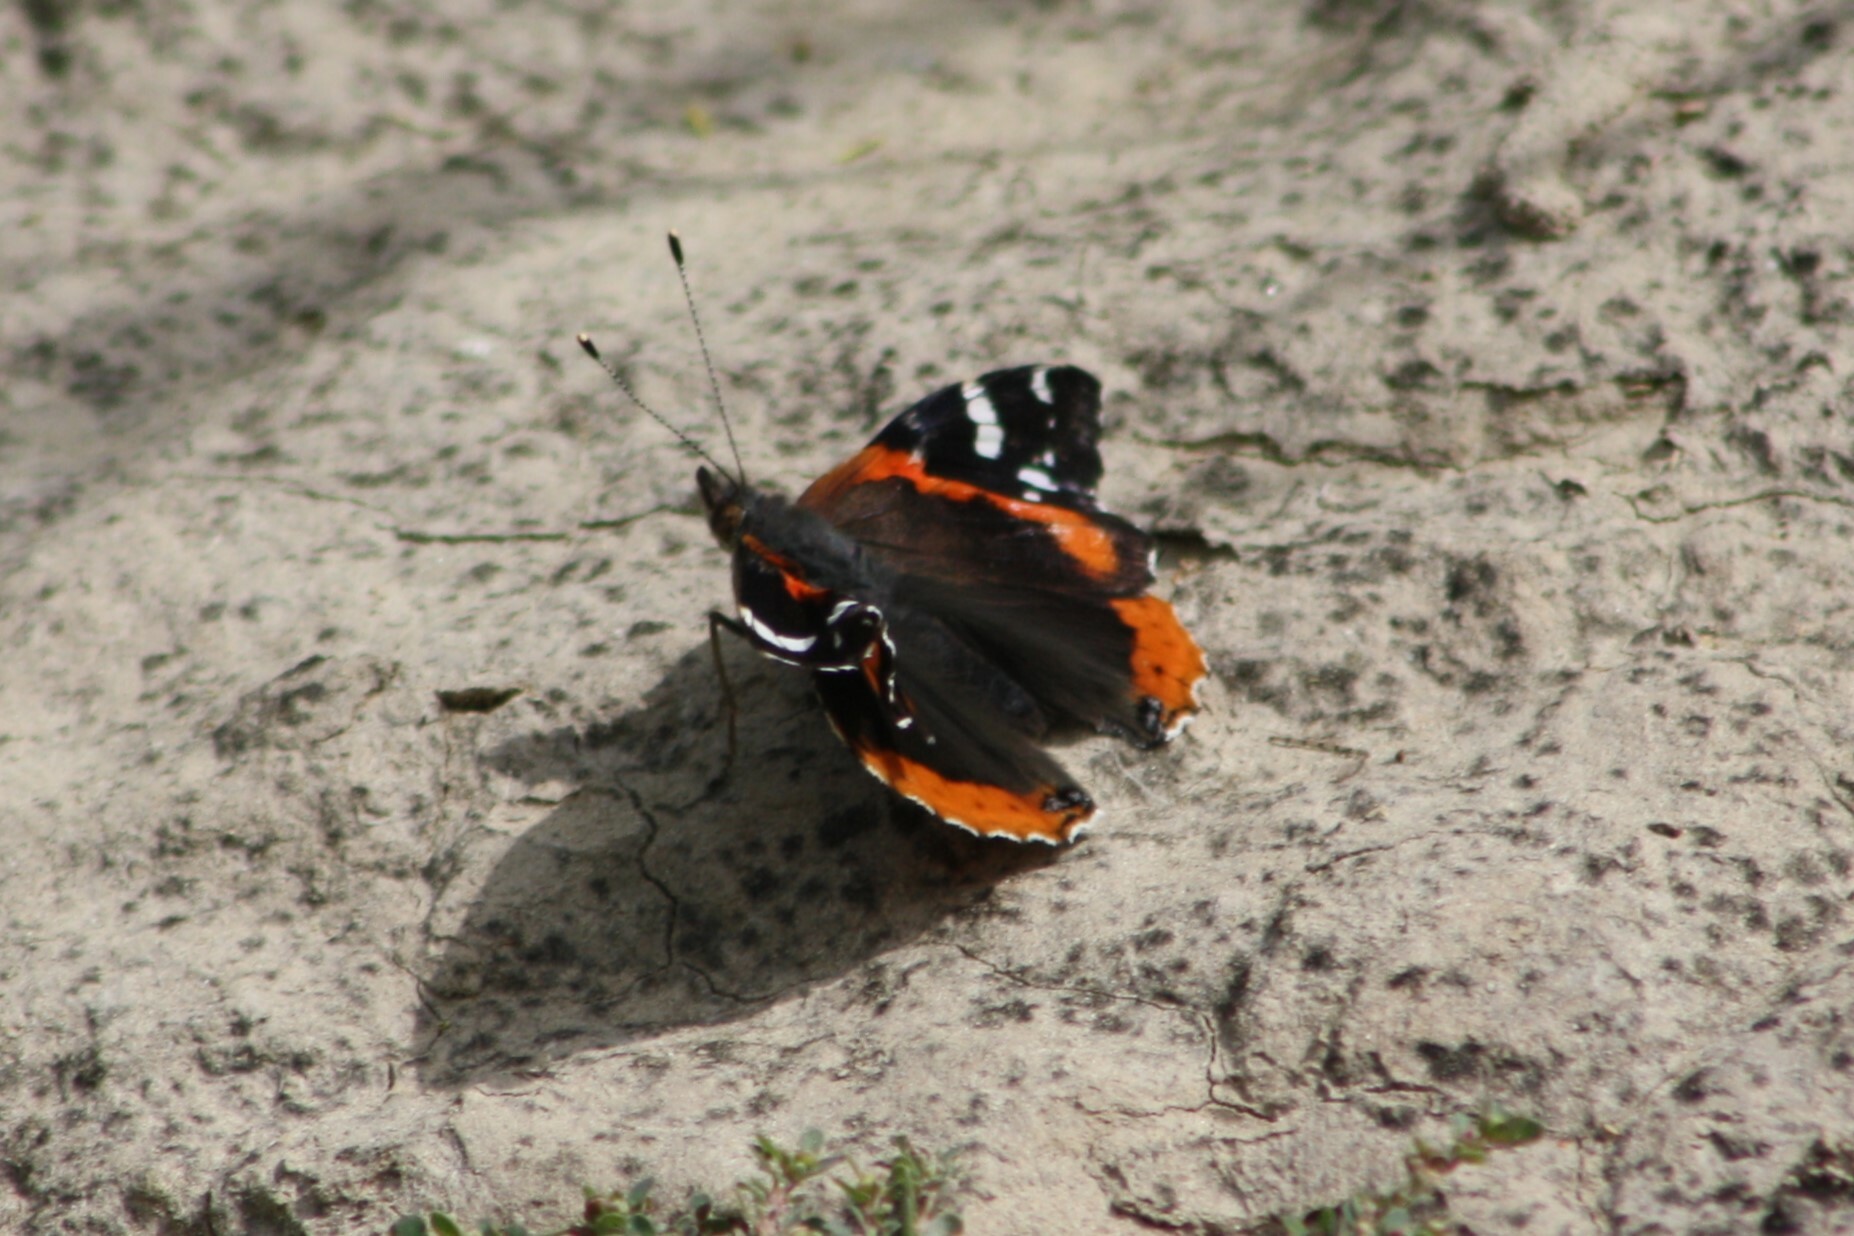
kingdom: Animalia
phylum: Arthropoda
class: Insecta
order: Lepidoptera
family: Nymphalidae
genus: Vanessa
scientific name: Vanessa atalanta
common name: Red admiral
